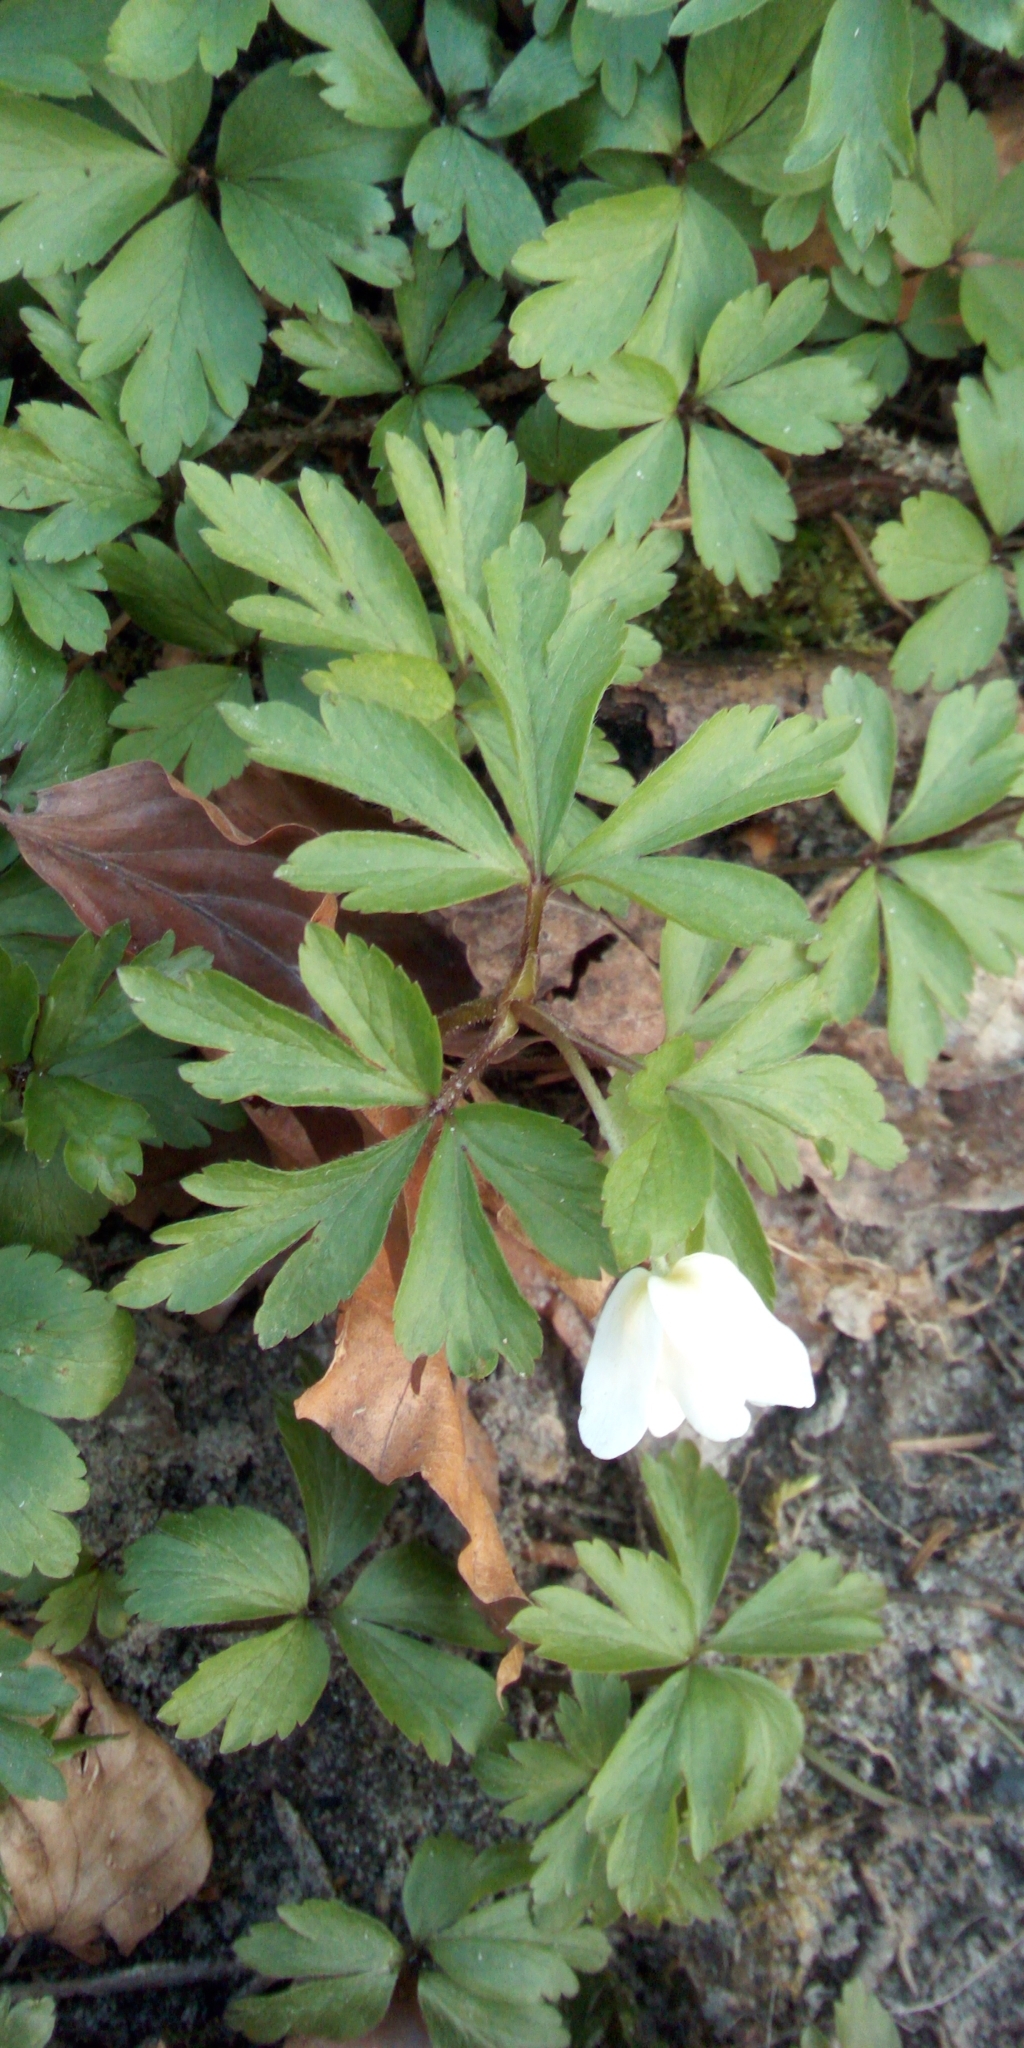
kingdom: Plantae
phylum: Tracheophyta
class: Magnoliopsida
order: Ranunculales
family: Ranunculaceae
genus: Anemone
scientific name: Anemone nemorosa
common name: Wood anemone
